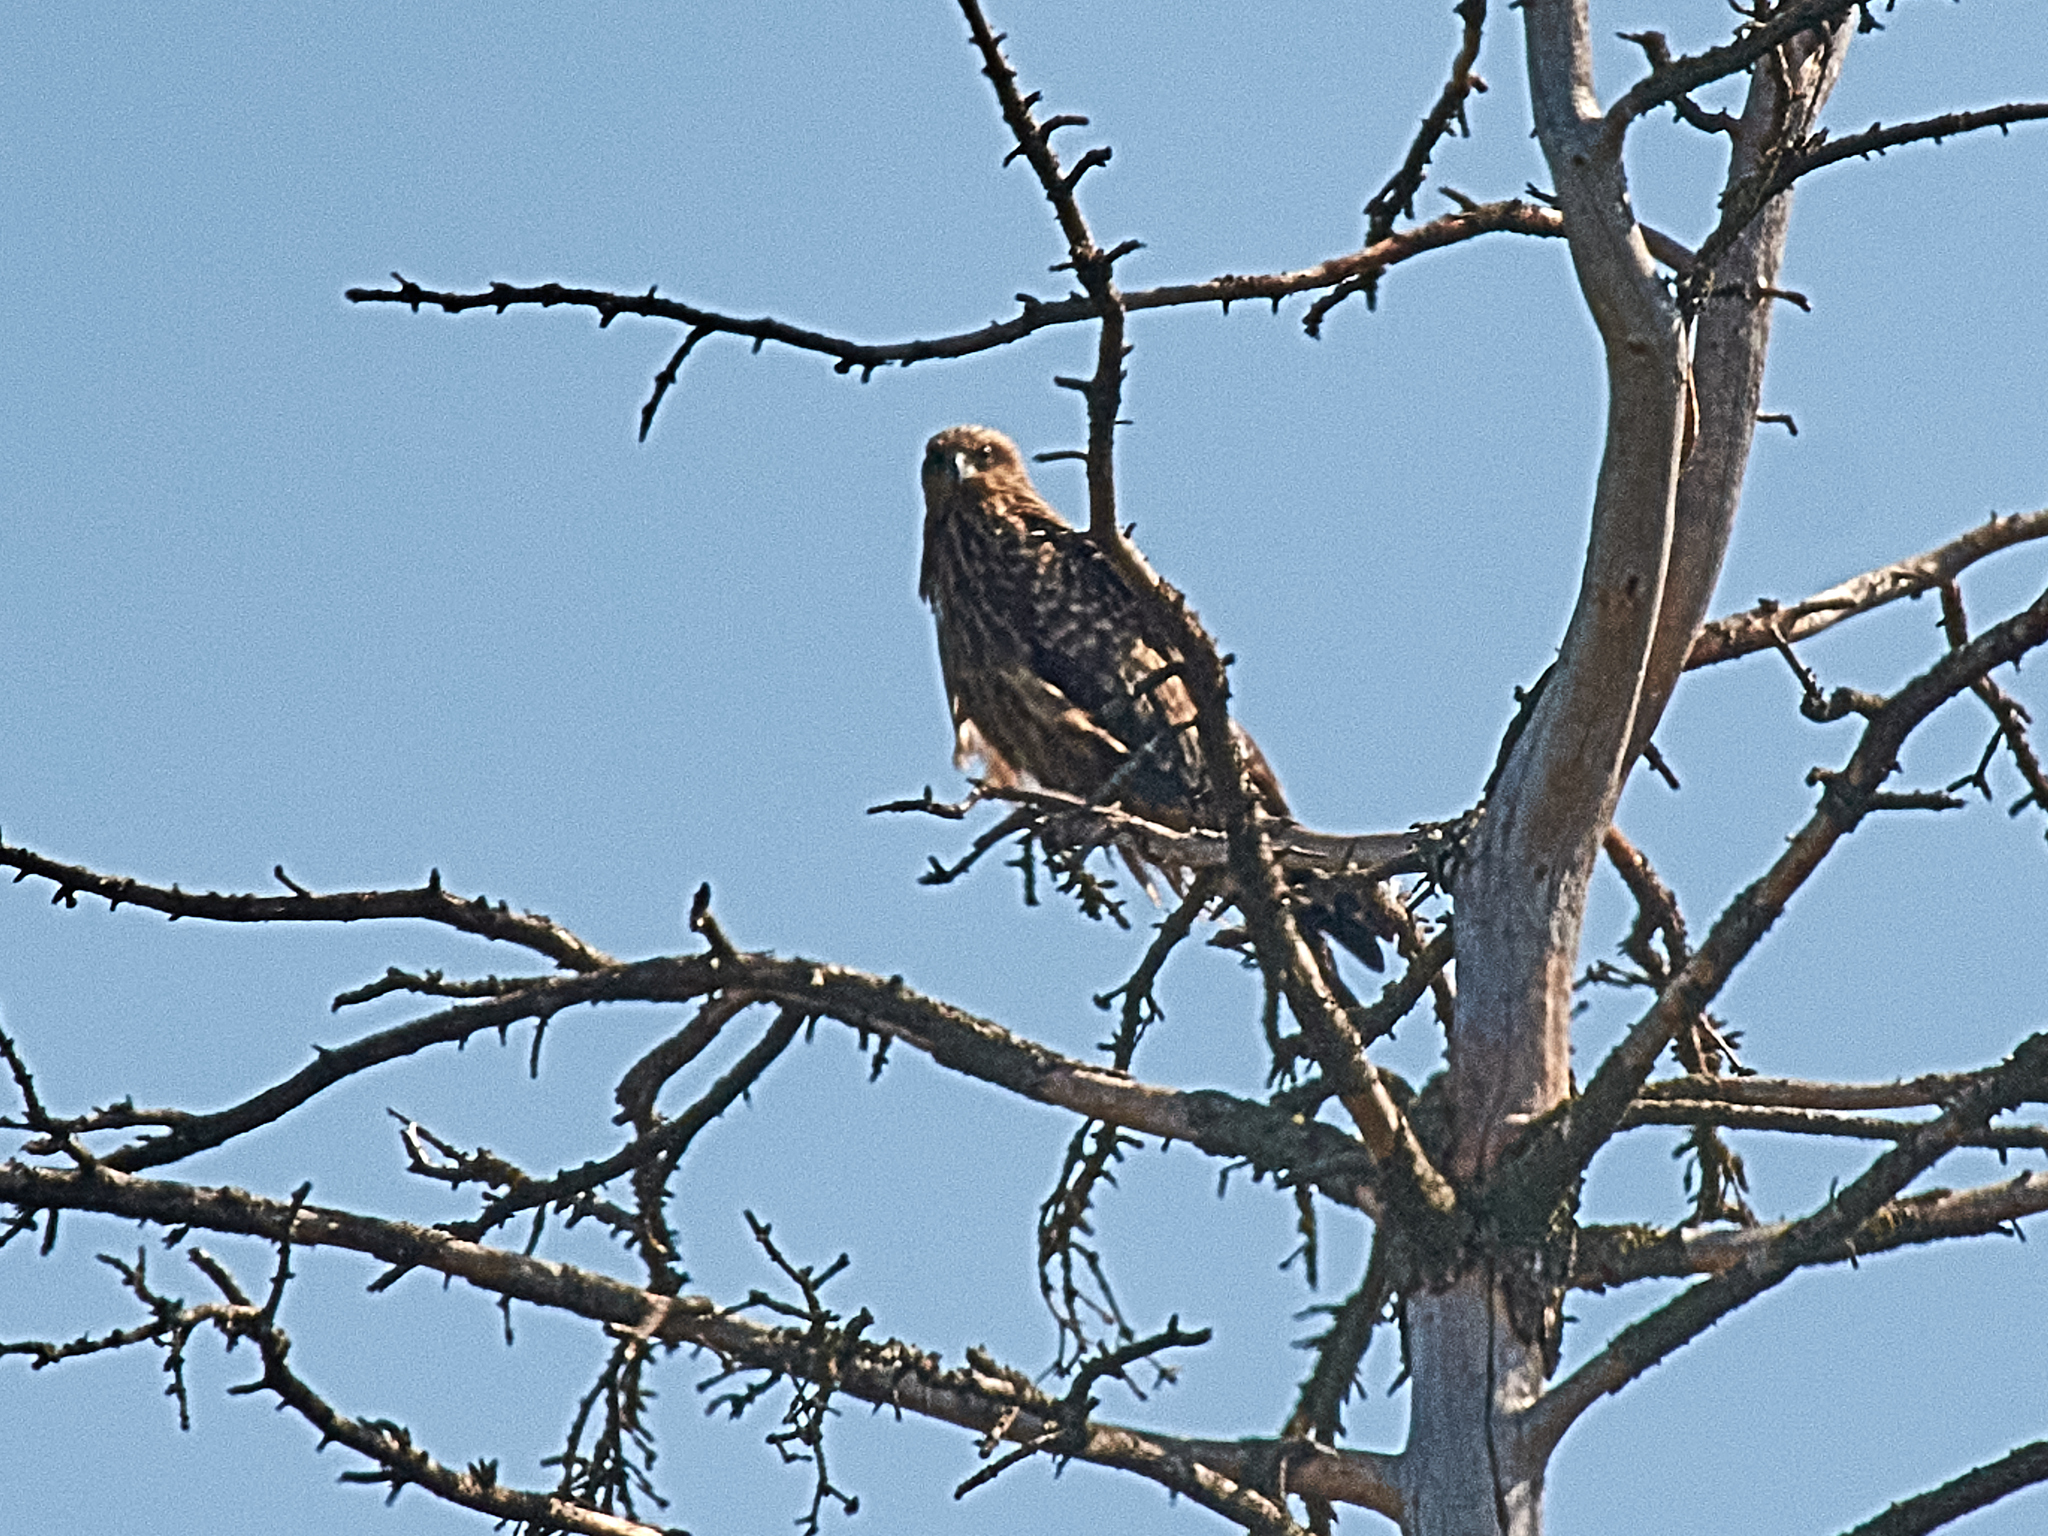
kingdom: Animalia
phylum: Chordata
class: Aves
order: Accipitriformes
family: Accipitridae
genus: Milvus
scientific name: Milvus migrans
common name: Black kite
